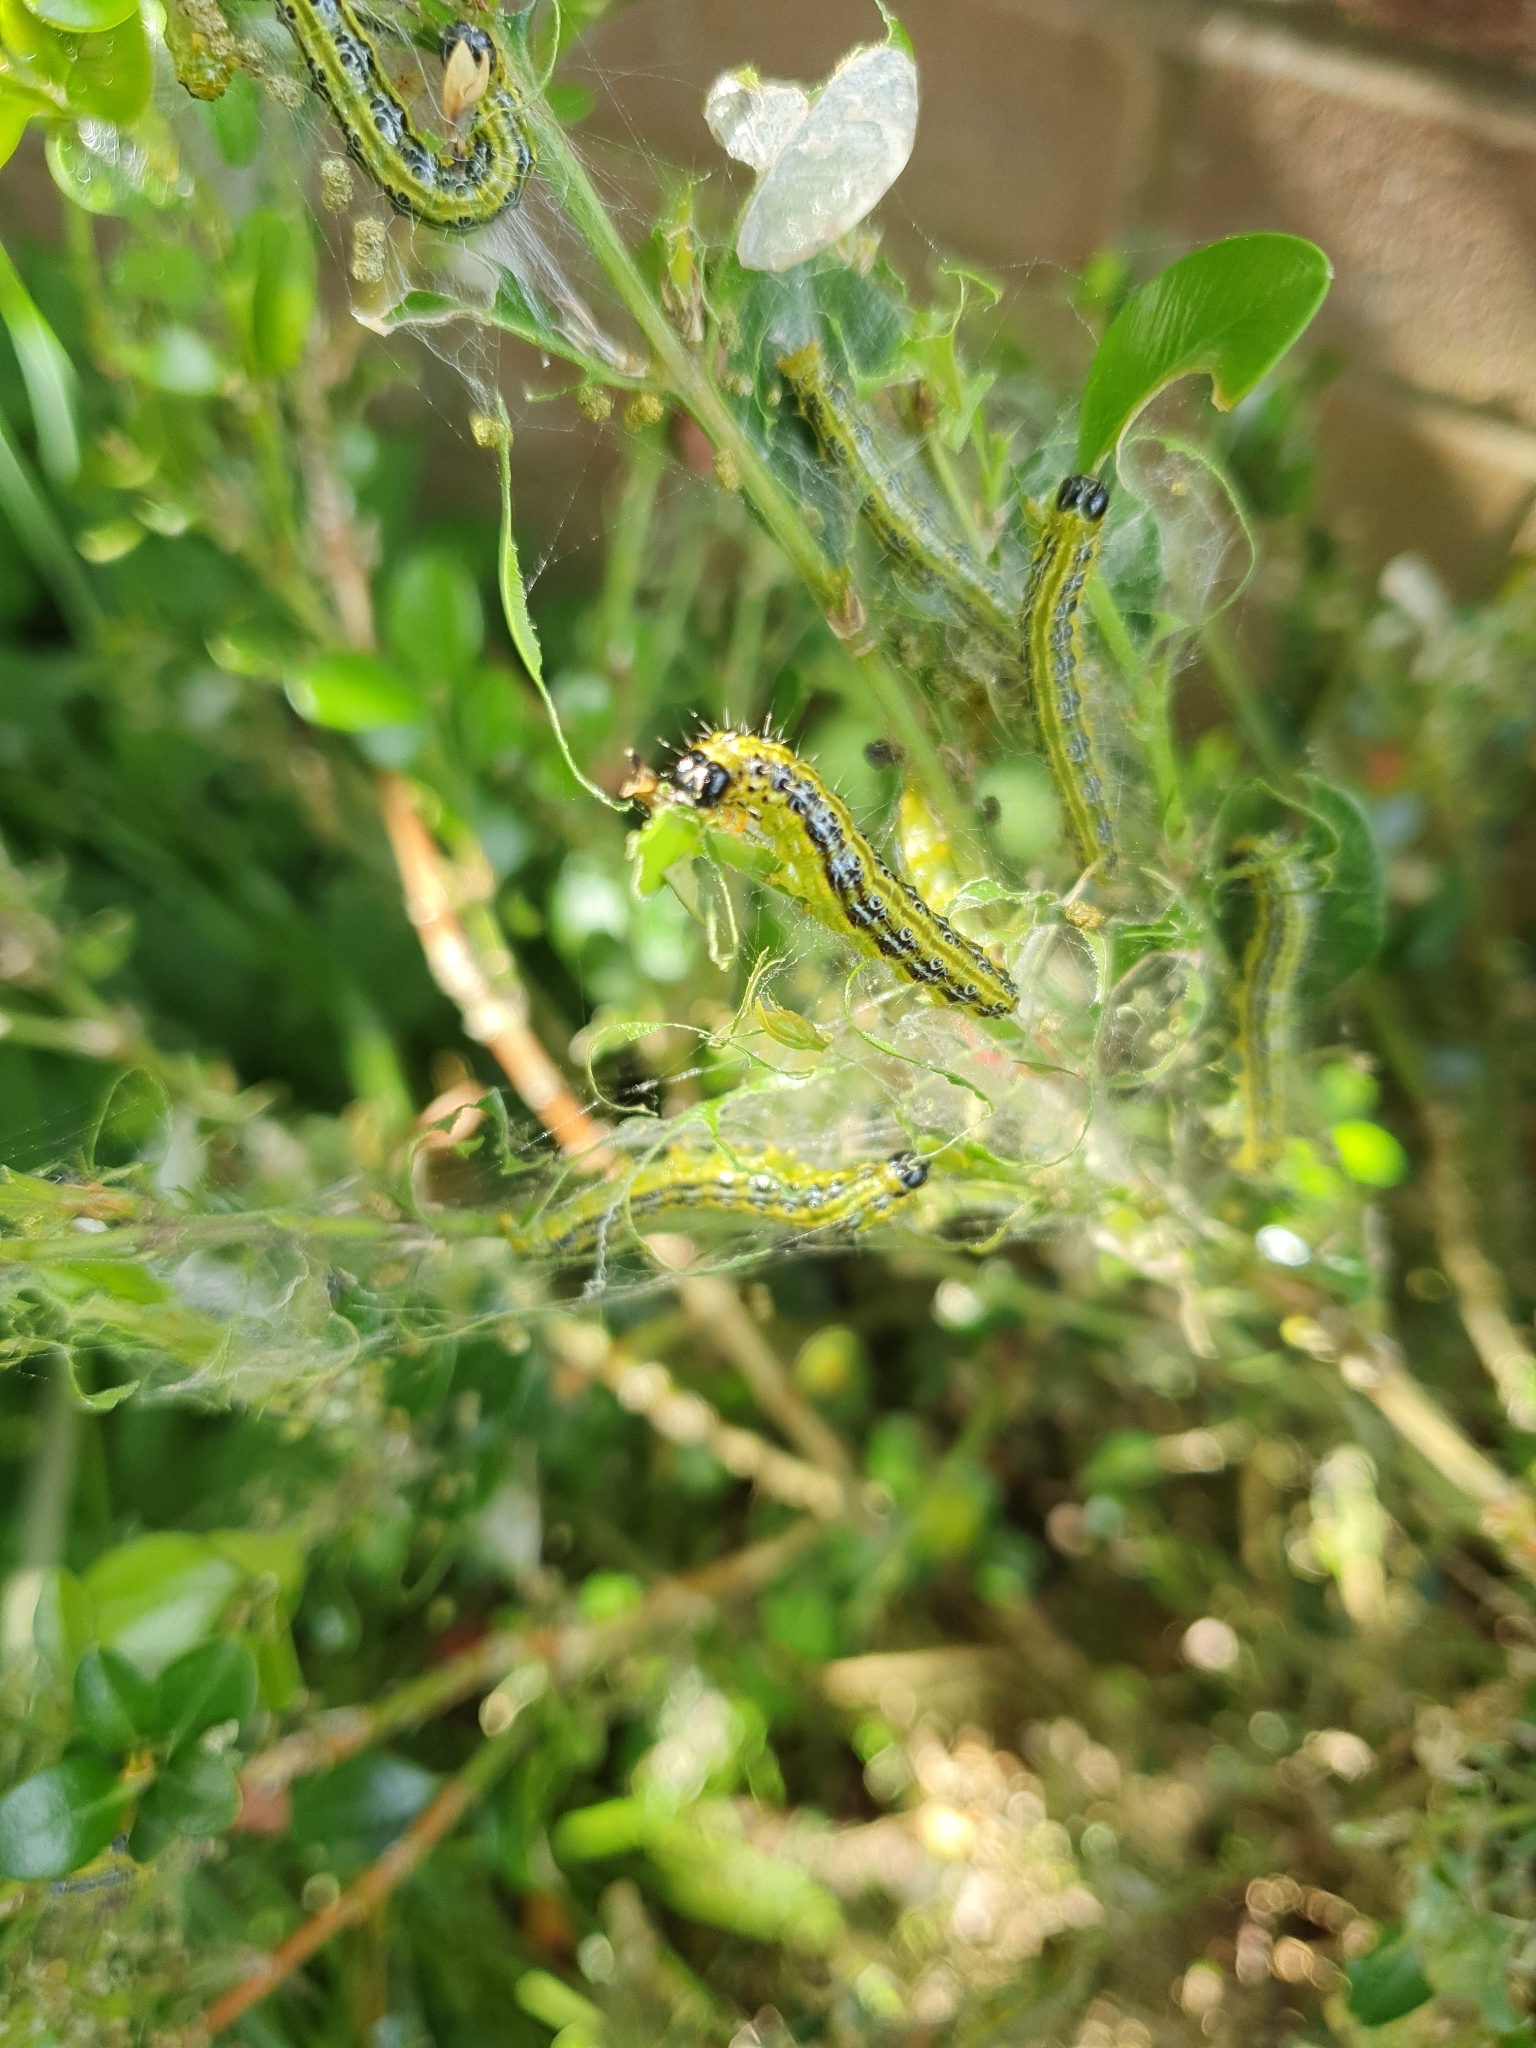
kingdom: Animalia
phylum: Arthropoda
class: Insecta
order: Lepidoptera
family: Crambidae
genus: Cydalima
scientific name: Cydalima perspectalis
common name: Box tree moth
